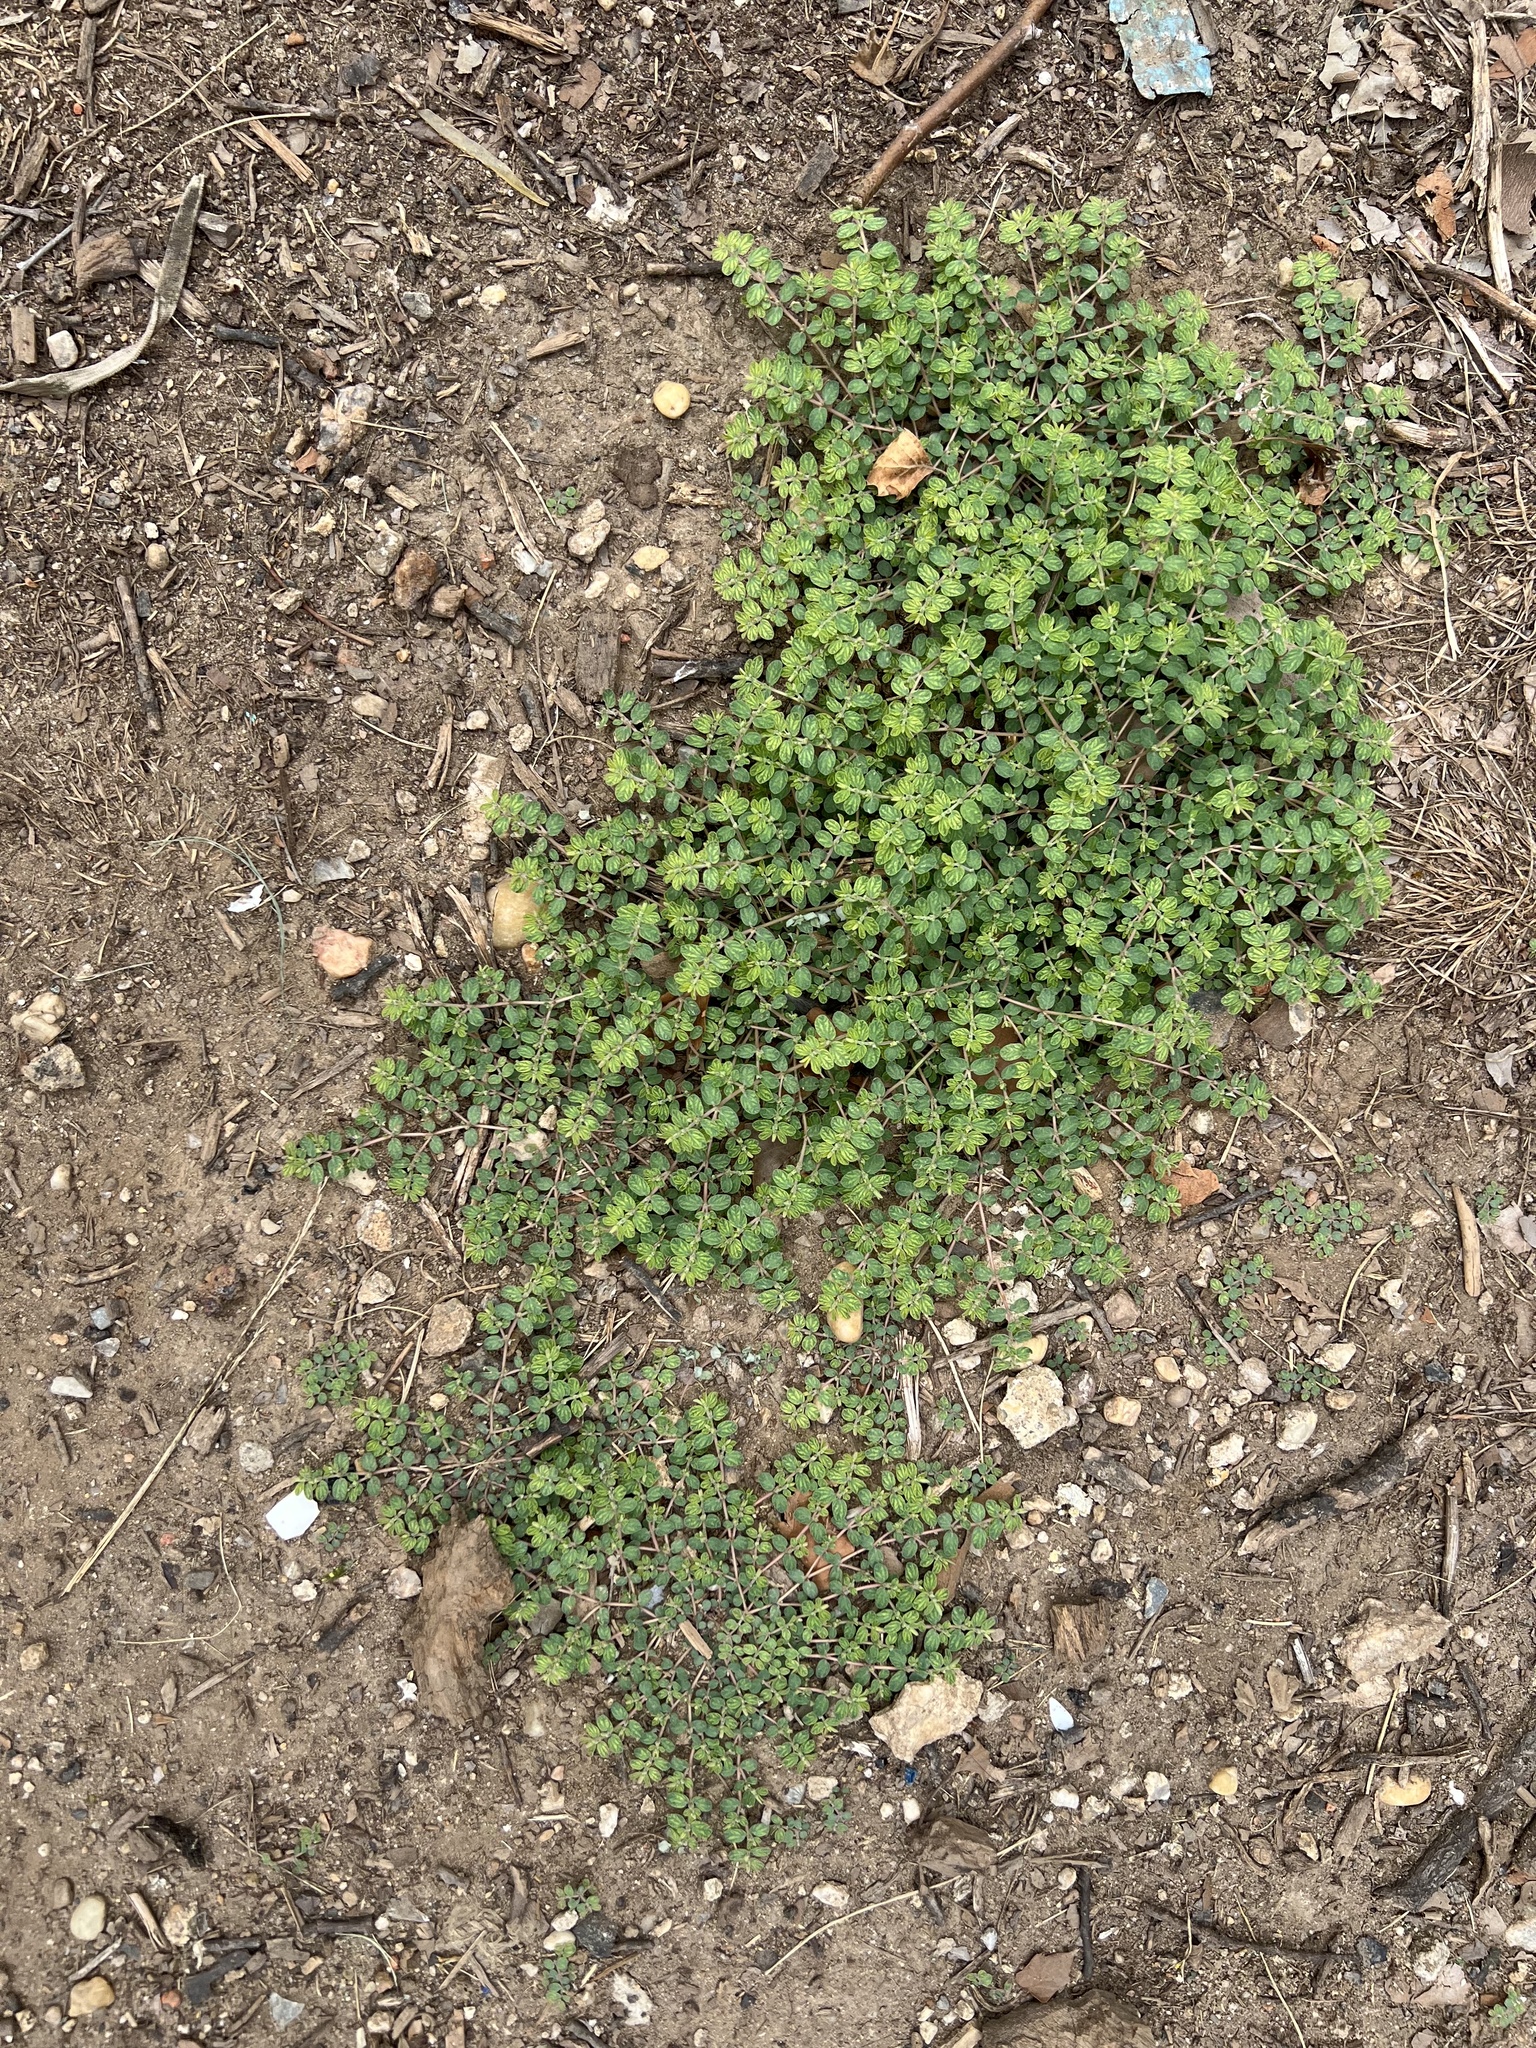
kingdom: Plantae
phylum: Tracheophyta
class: Magnoliopsida
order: Malpighiales
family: Euphorbiaceae
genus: Euphorbia
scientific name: Euphorbia prostrata
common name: Prostrate sandmat
